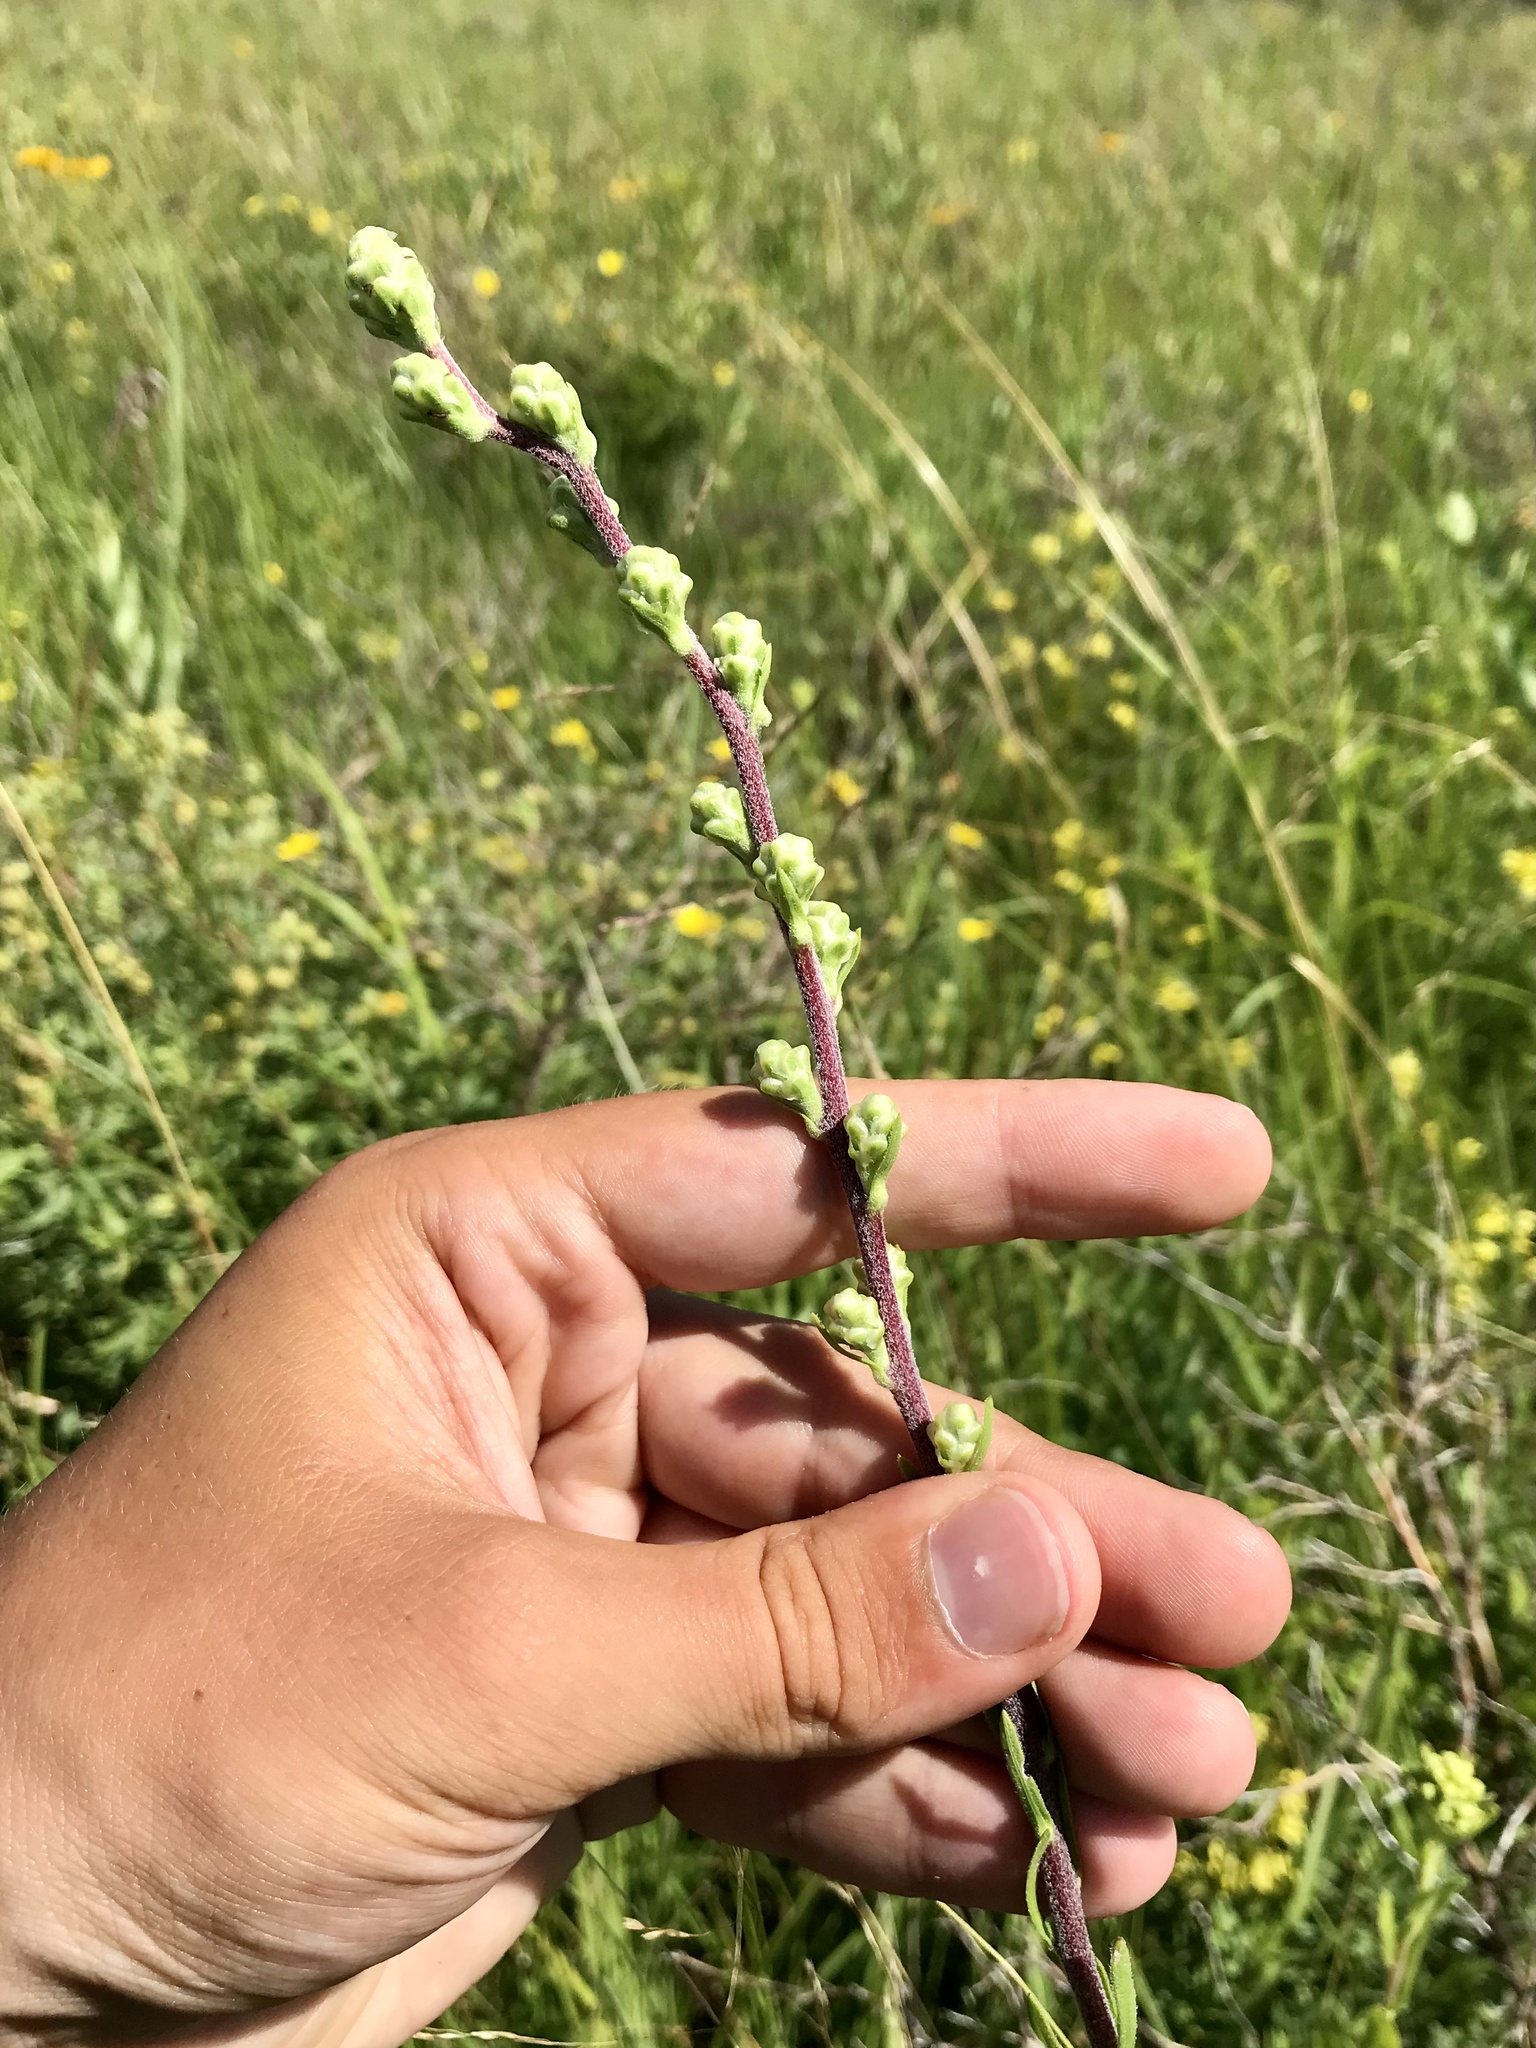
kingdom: Plantae
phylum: Tracheophyta
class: Magnoliopsida
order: Asterales
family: Asteraceae
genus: Liatris
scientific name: Liatris aspera
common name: Lacerate blazing-star
